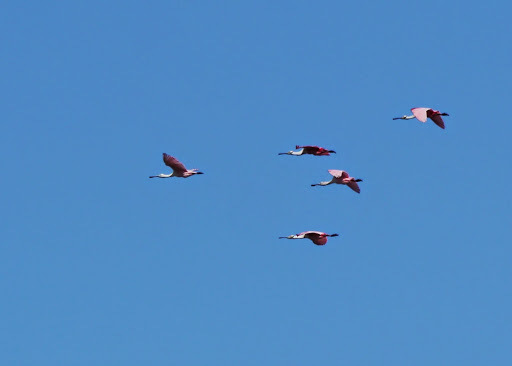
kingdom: Animalia
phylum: Chordata
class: Aves
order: Pelecaniformes
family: Threskiornithidae
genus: Platalea
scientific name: Platalea ajaja
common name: Roseate spoonbill
